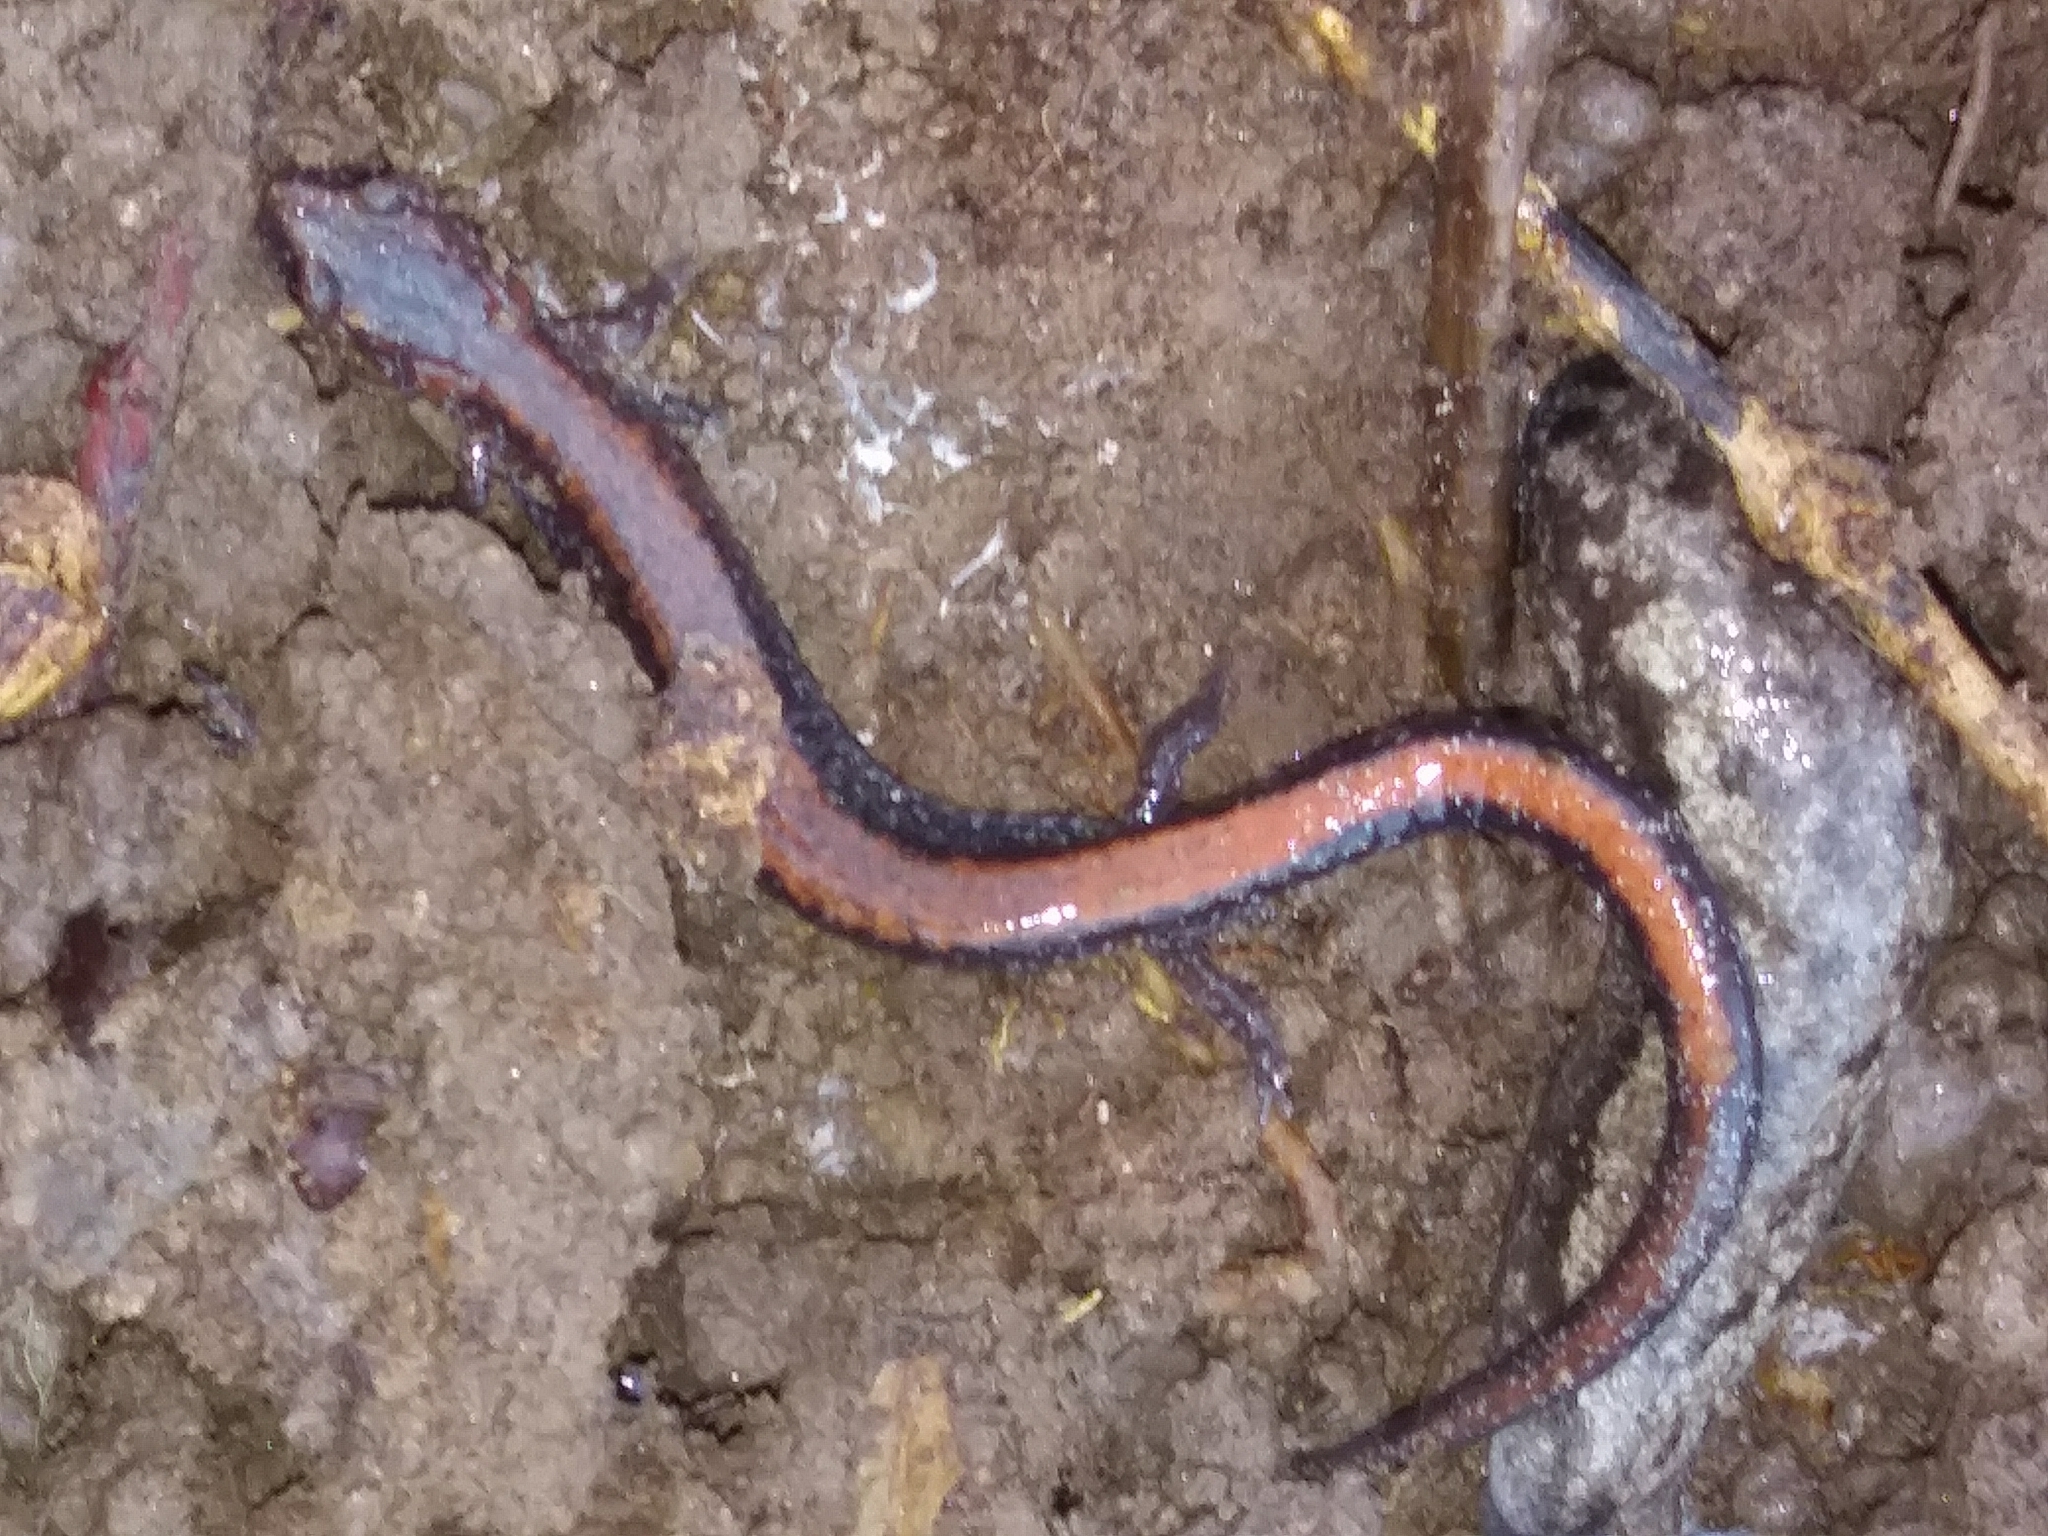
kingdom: Animalia
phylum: Chordata
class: Amphibia
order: Caudata
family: Plethodontidae
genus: Plethodon
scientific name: Plethodon cinereus
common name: Redback salamander
